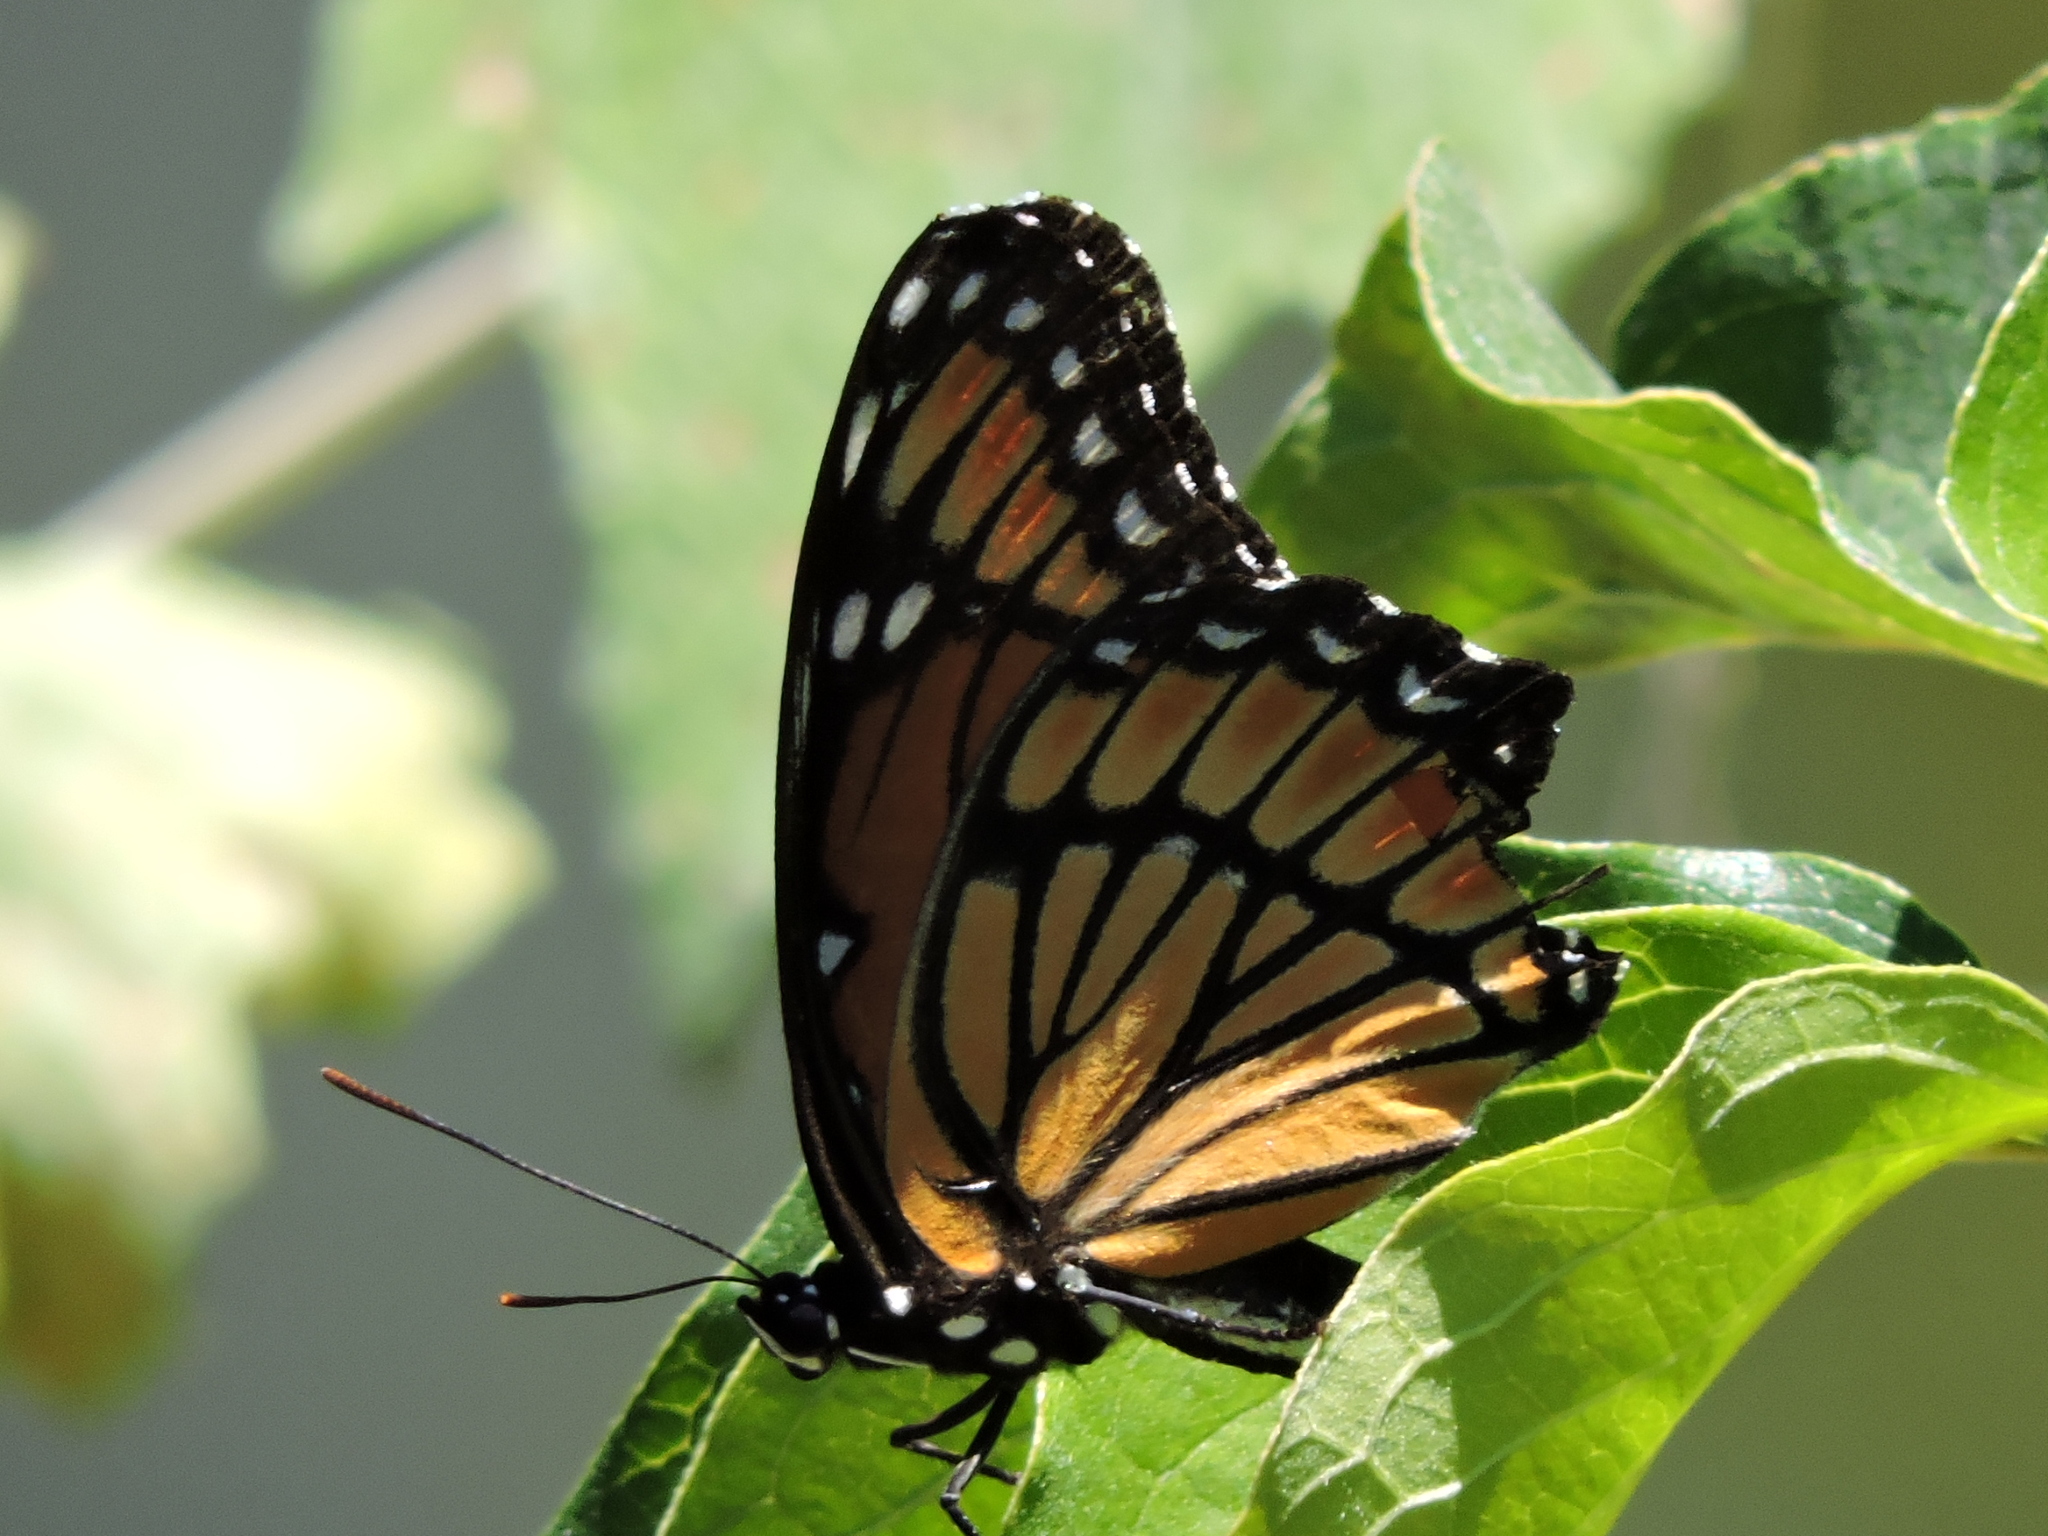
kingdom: Animalia
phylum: Arthropoda
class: Insecta
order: Lepidoptera
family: Nymphalidae
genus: Limenitis
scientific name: Limenitis archippus
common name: Viceroy
